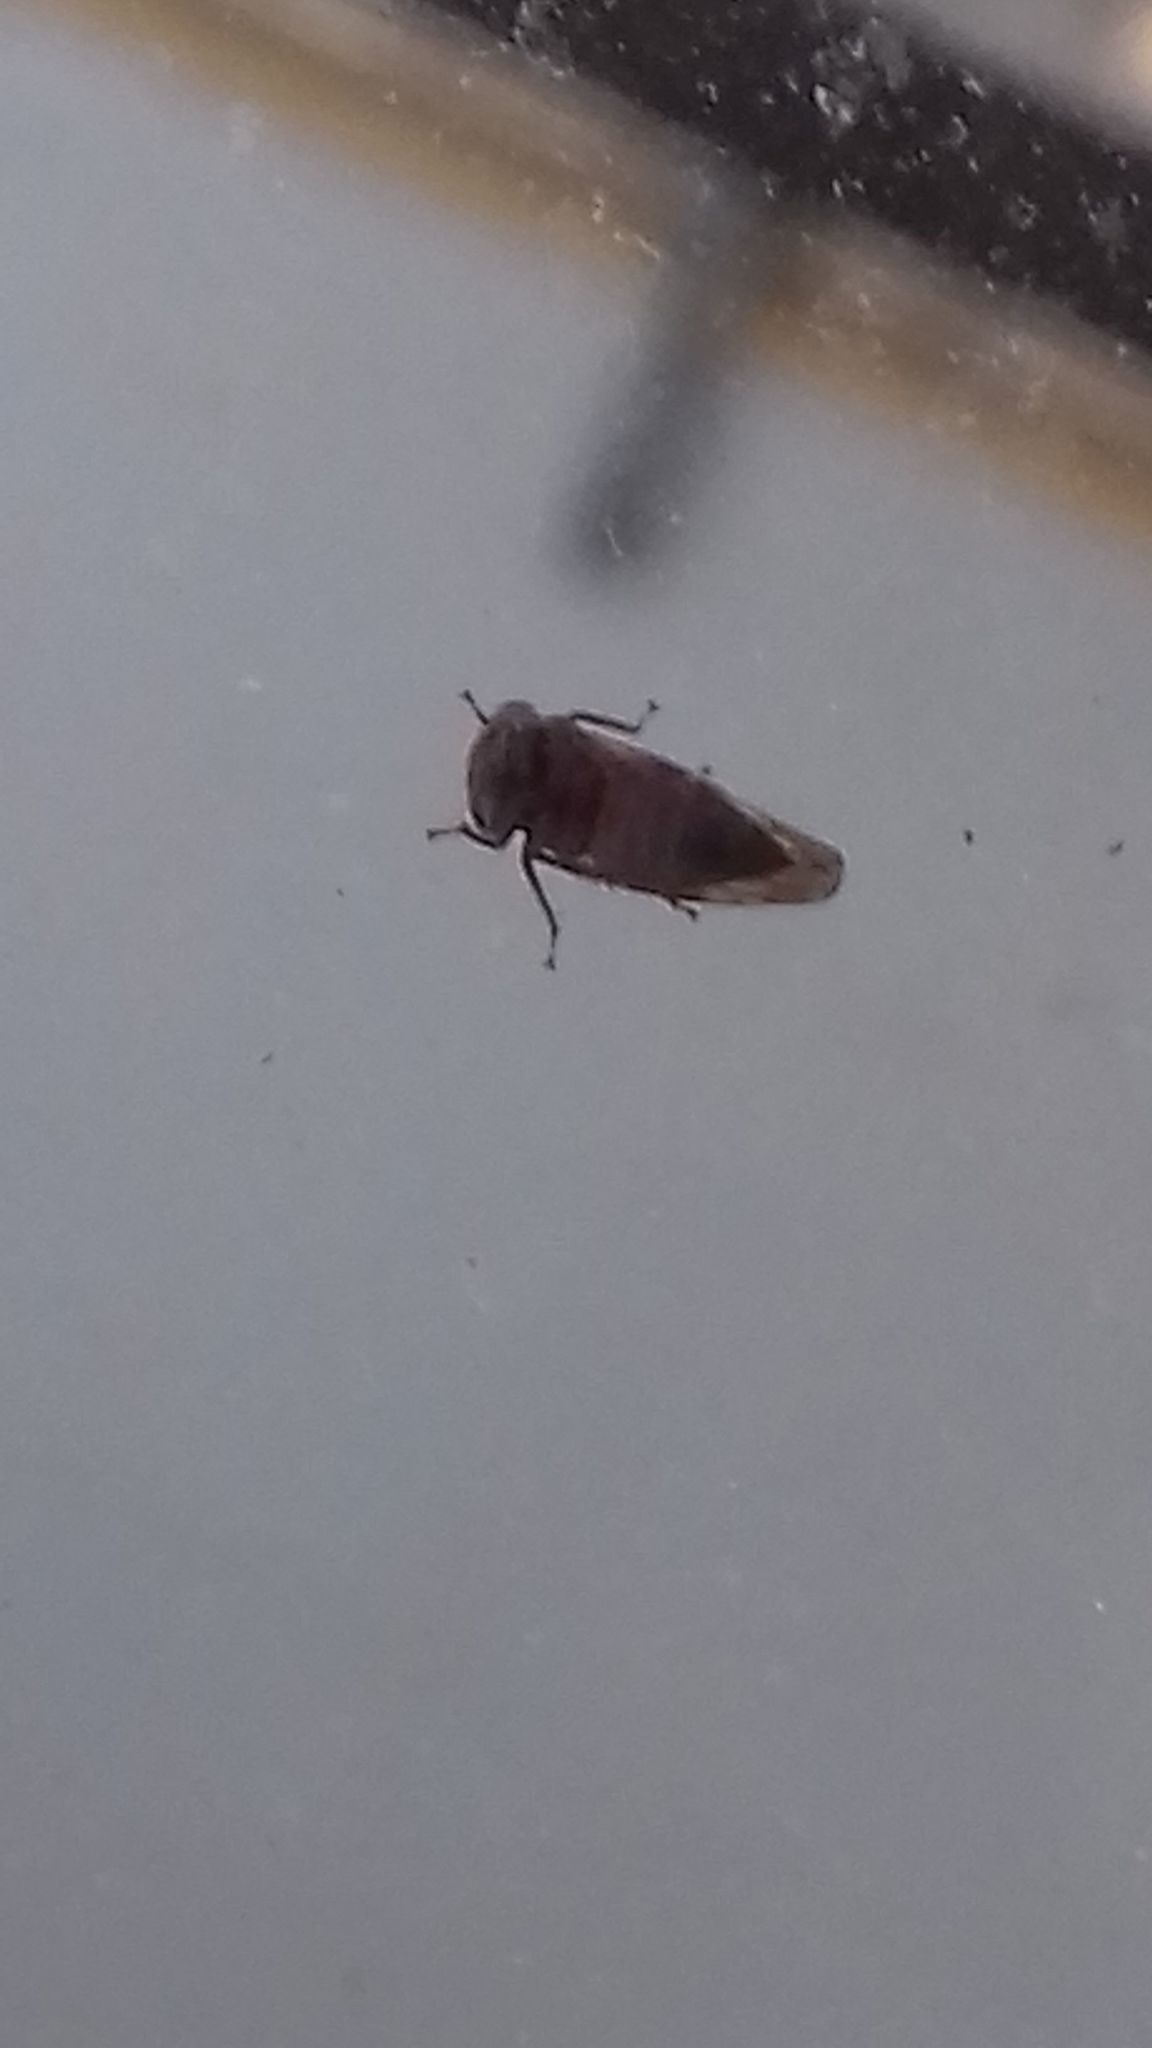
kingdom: Animalia
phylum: Arthropoda
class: Insecta
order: Hemiptera
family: Cicadellidae
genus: Acericerus
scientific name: Acericerus ribauti
